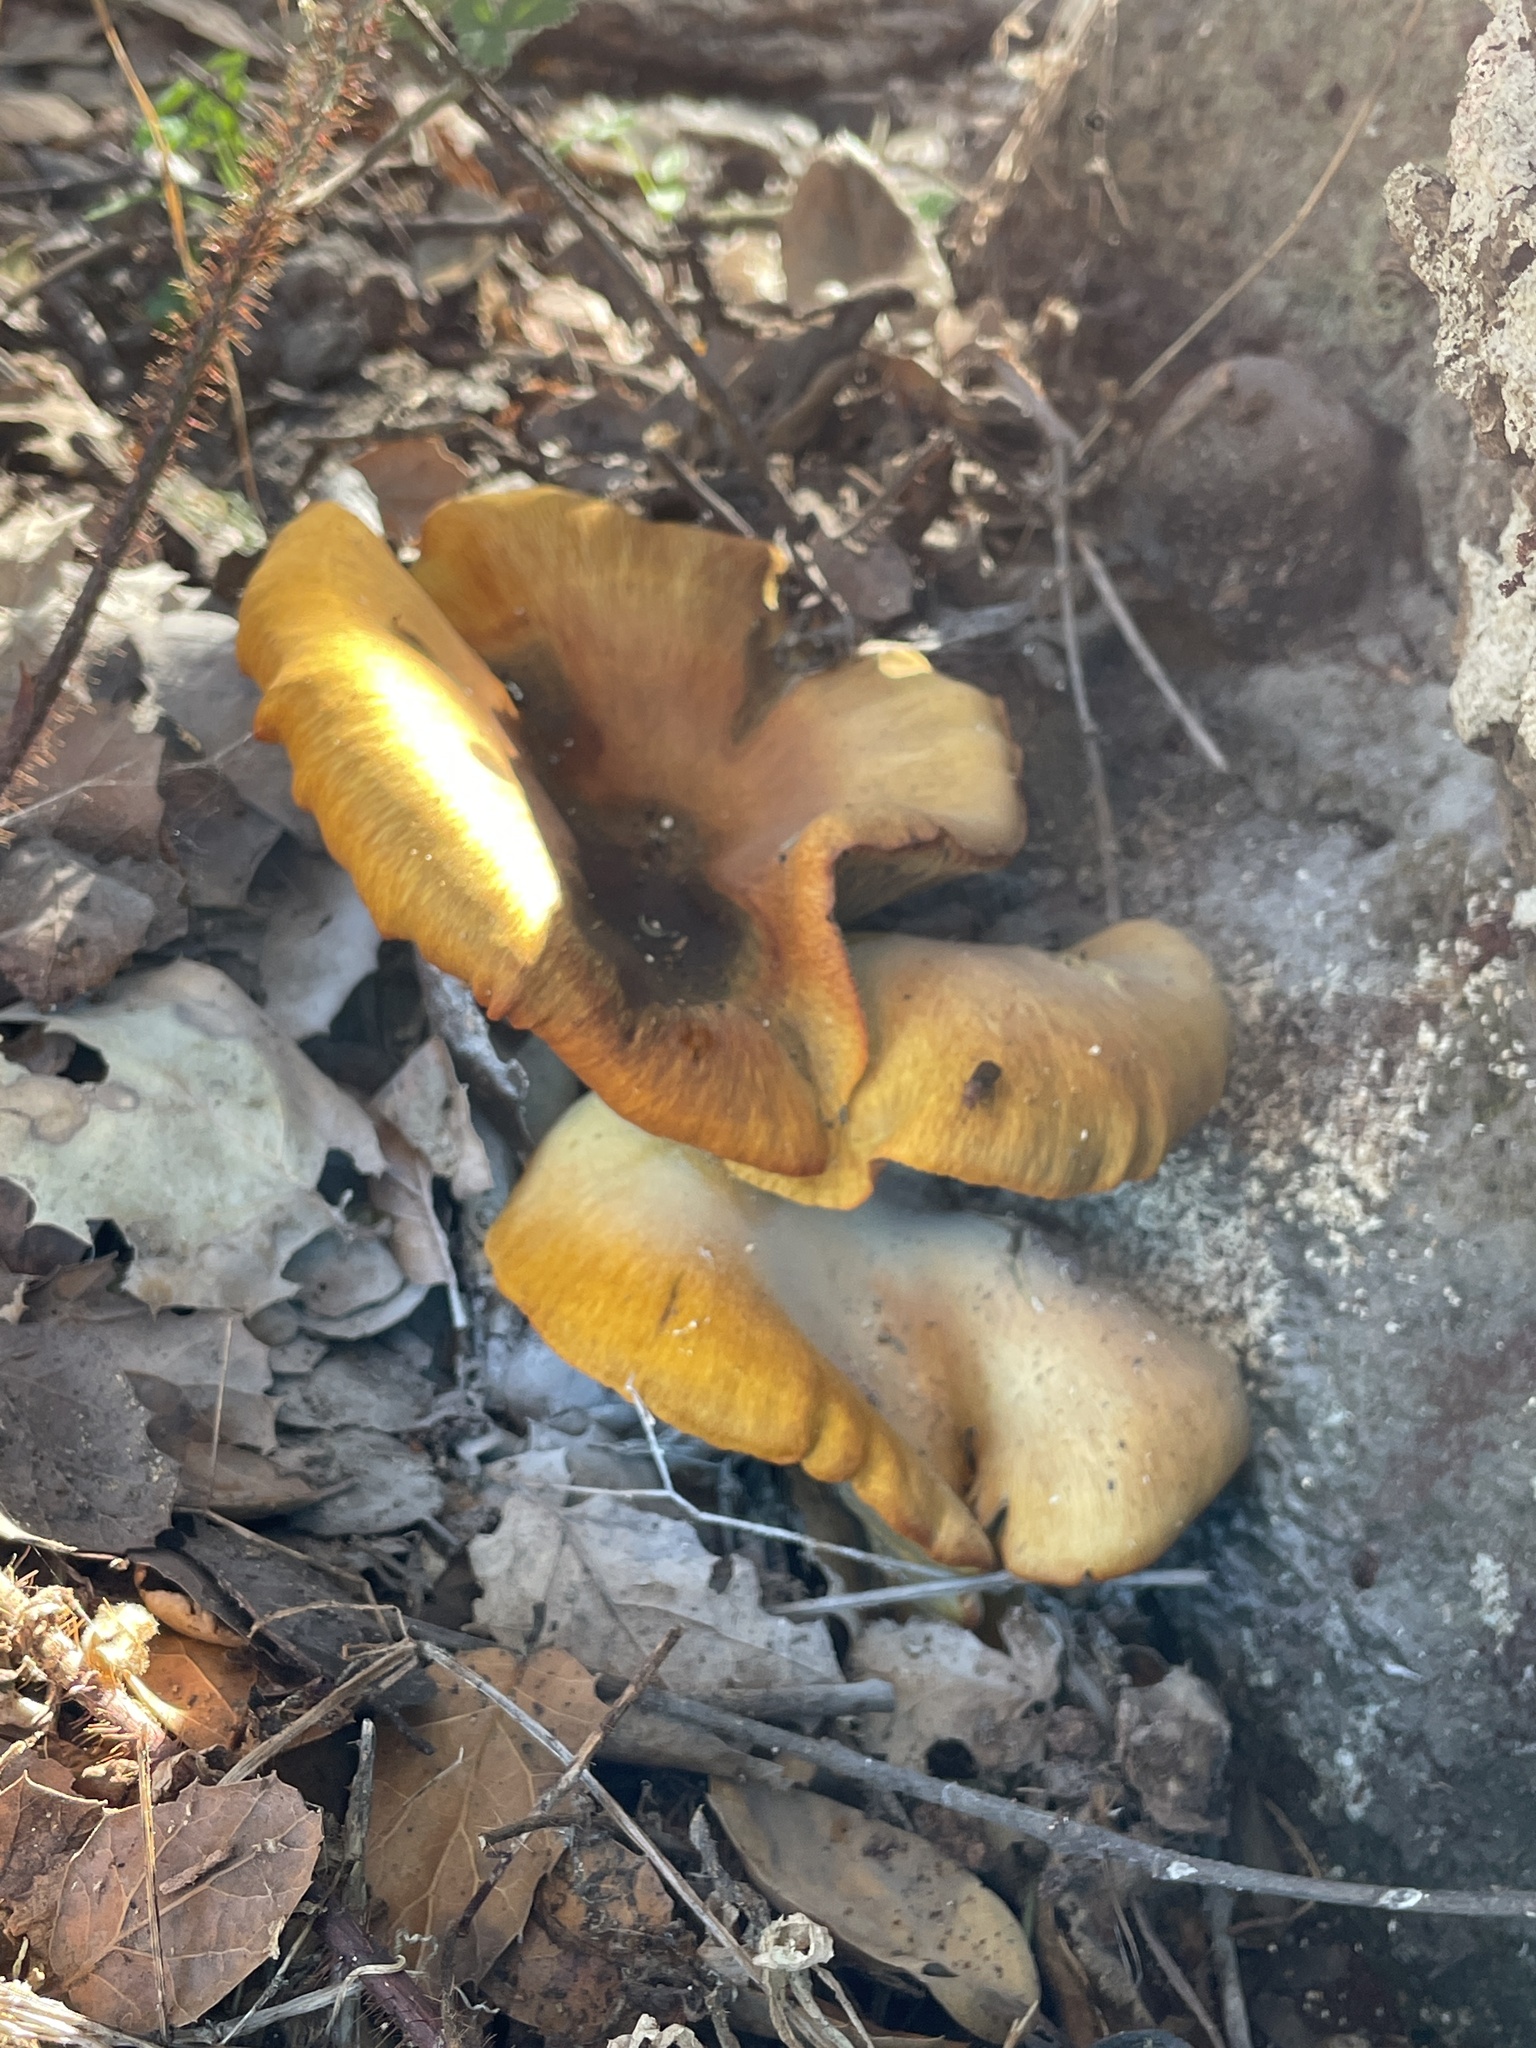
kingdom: Fungi
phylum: Basidiomycota
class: Agaricomycetes
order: Agaricales
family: Omphalotaceae
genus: Omphalotus
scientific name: Omphalotus olivascens
